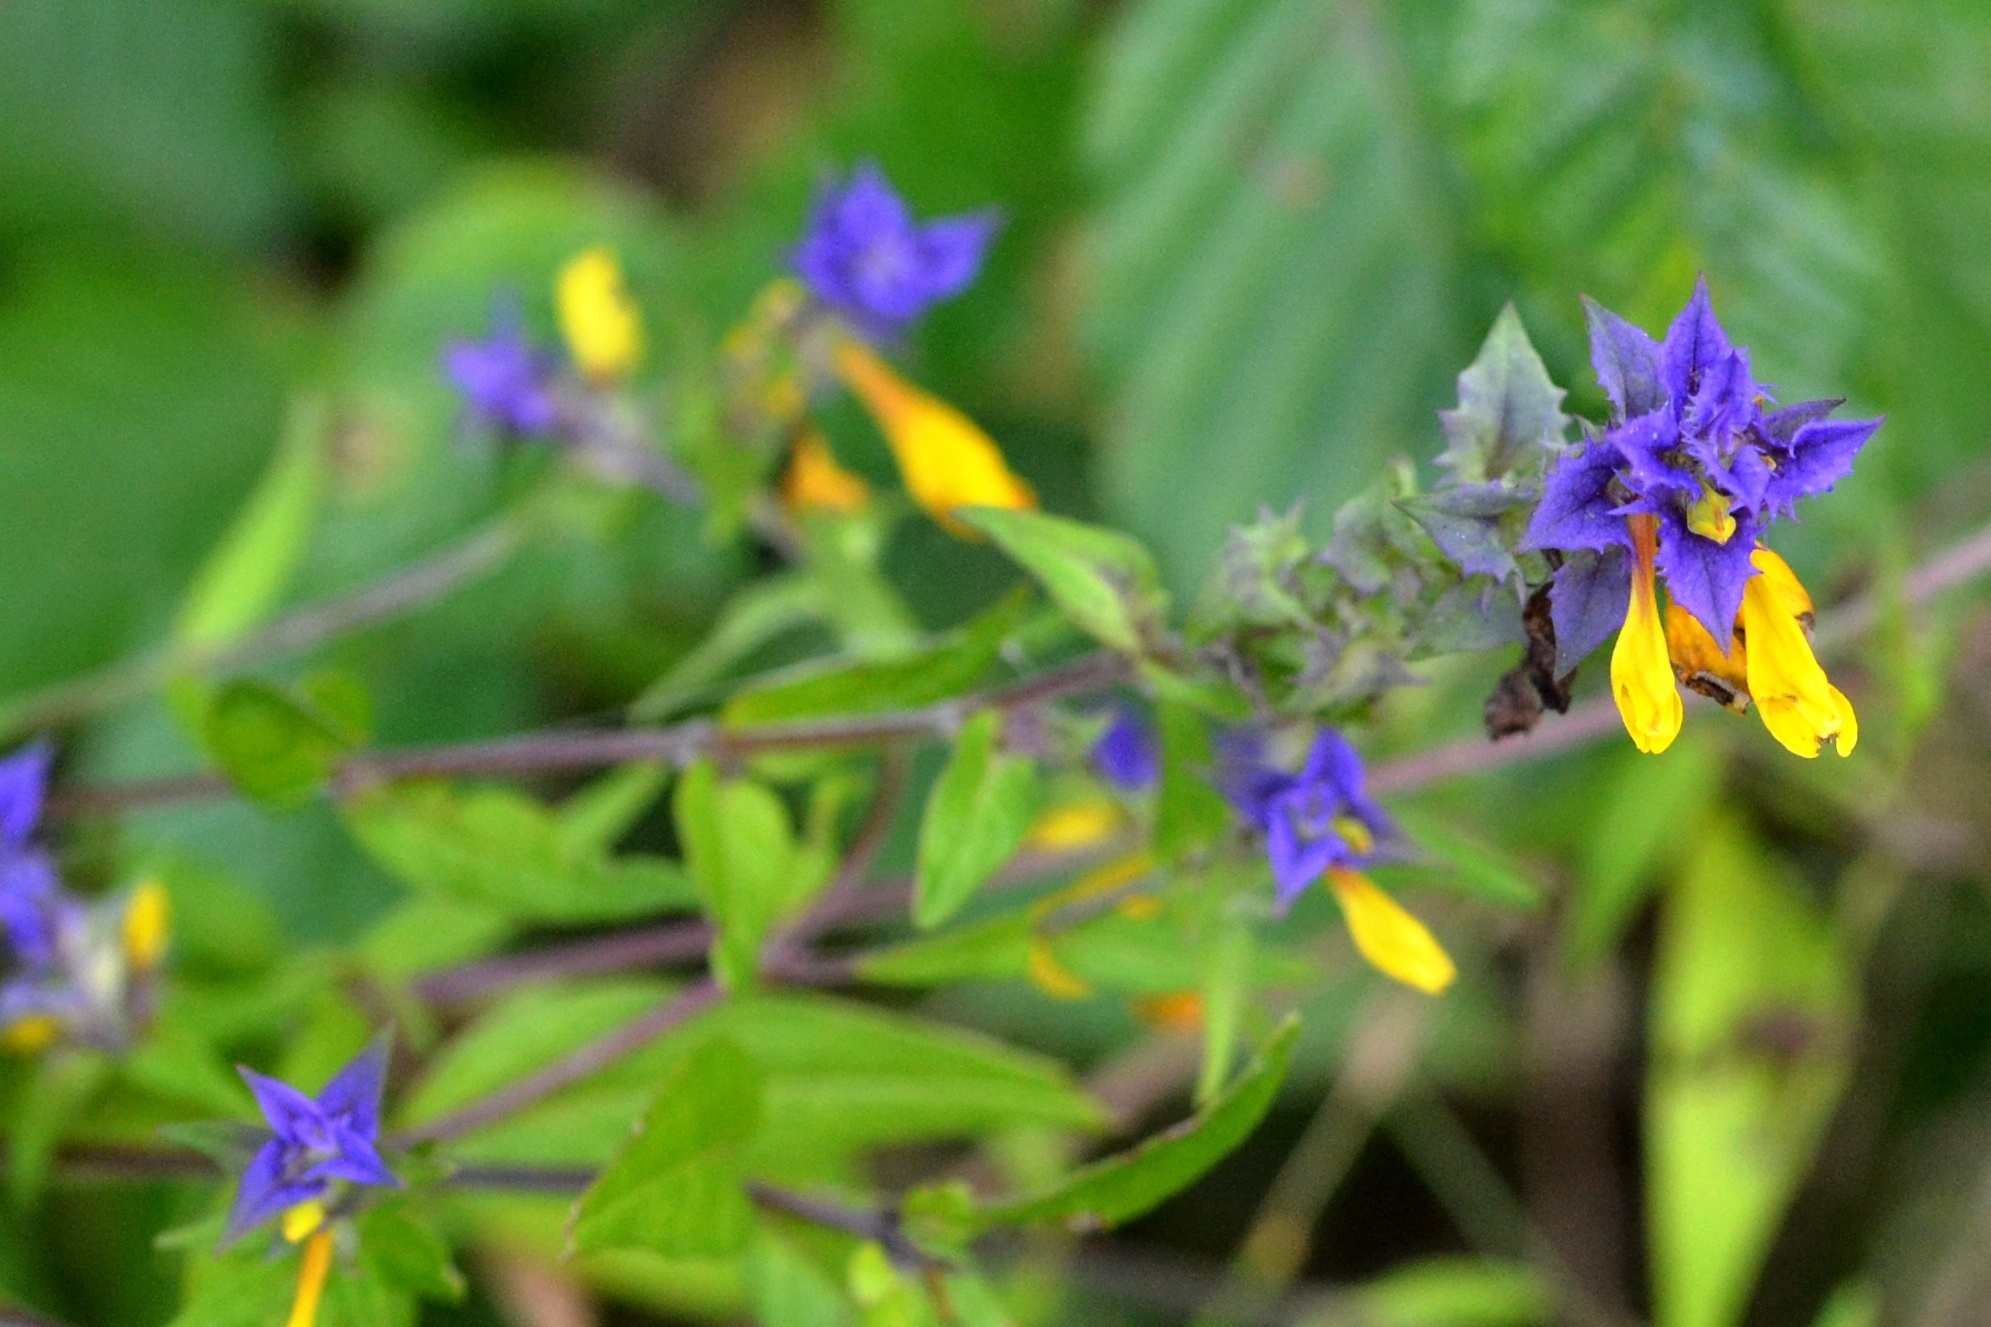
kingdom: Plantae
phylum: Tracheophyta
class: Magnoliopsida
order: Lamiales
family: Orobanchaceae
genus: Melampyrum
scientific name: Melampyrum nemorosum
